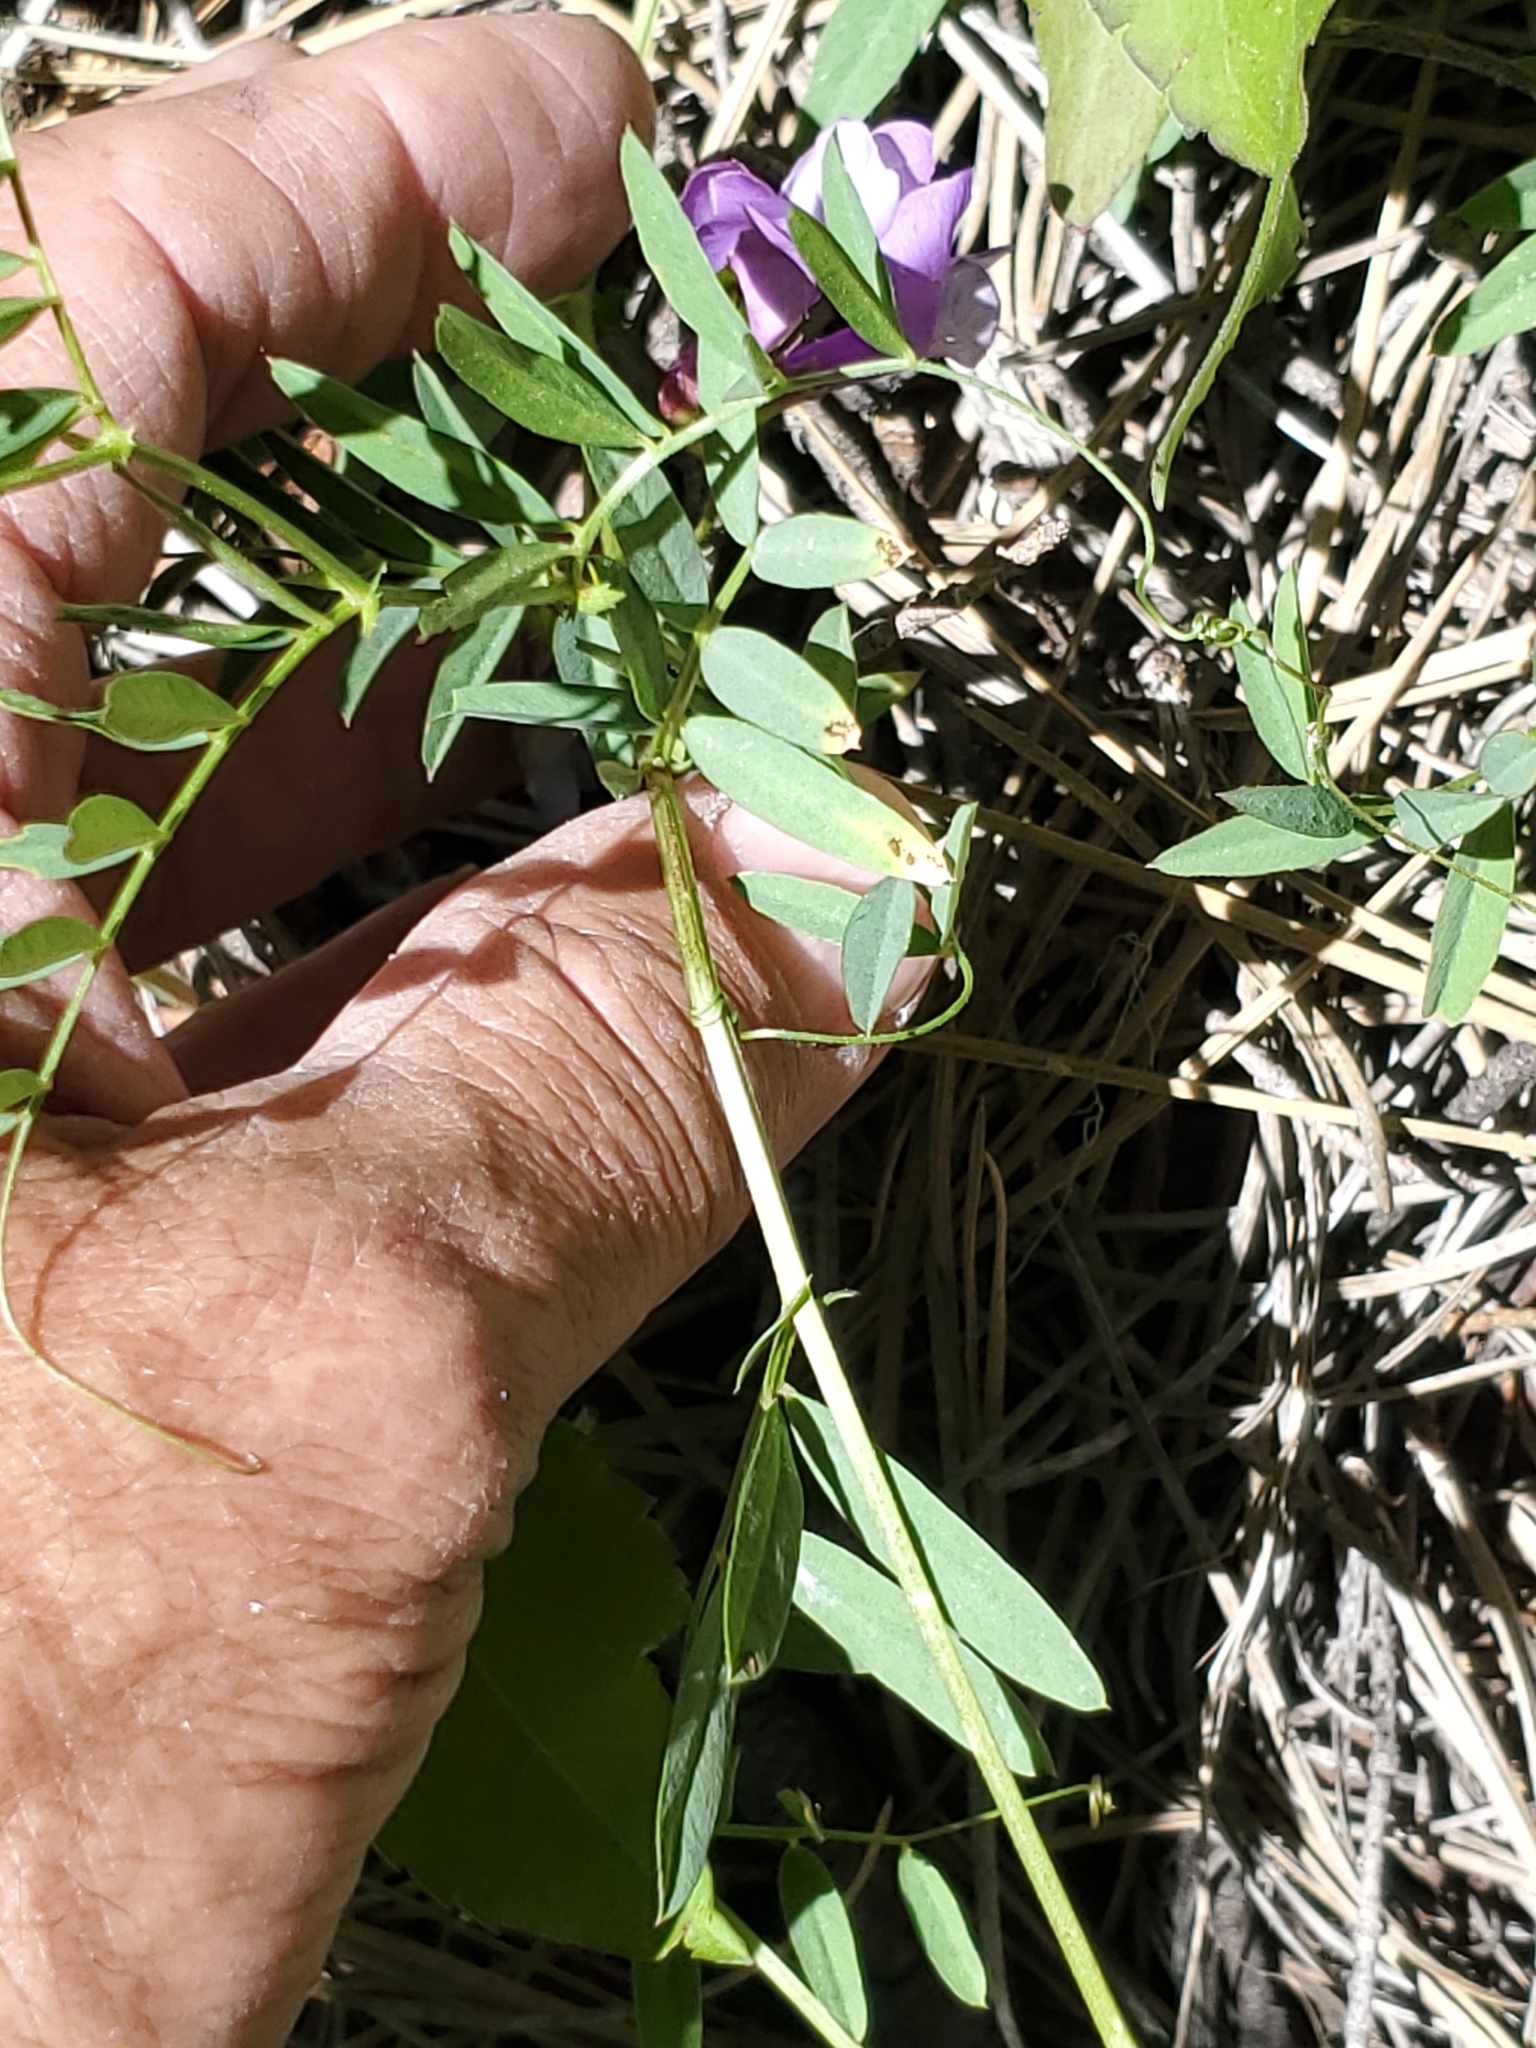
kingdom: Plantae
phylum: Tracheophyta
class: Magnoliopsida
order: Fabales
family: Fabaceae
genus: Vicia
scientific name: Vicia americana
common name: American vetch
